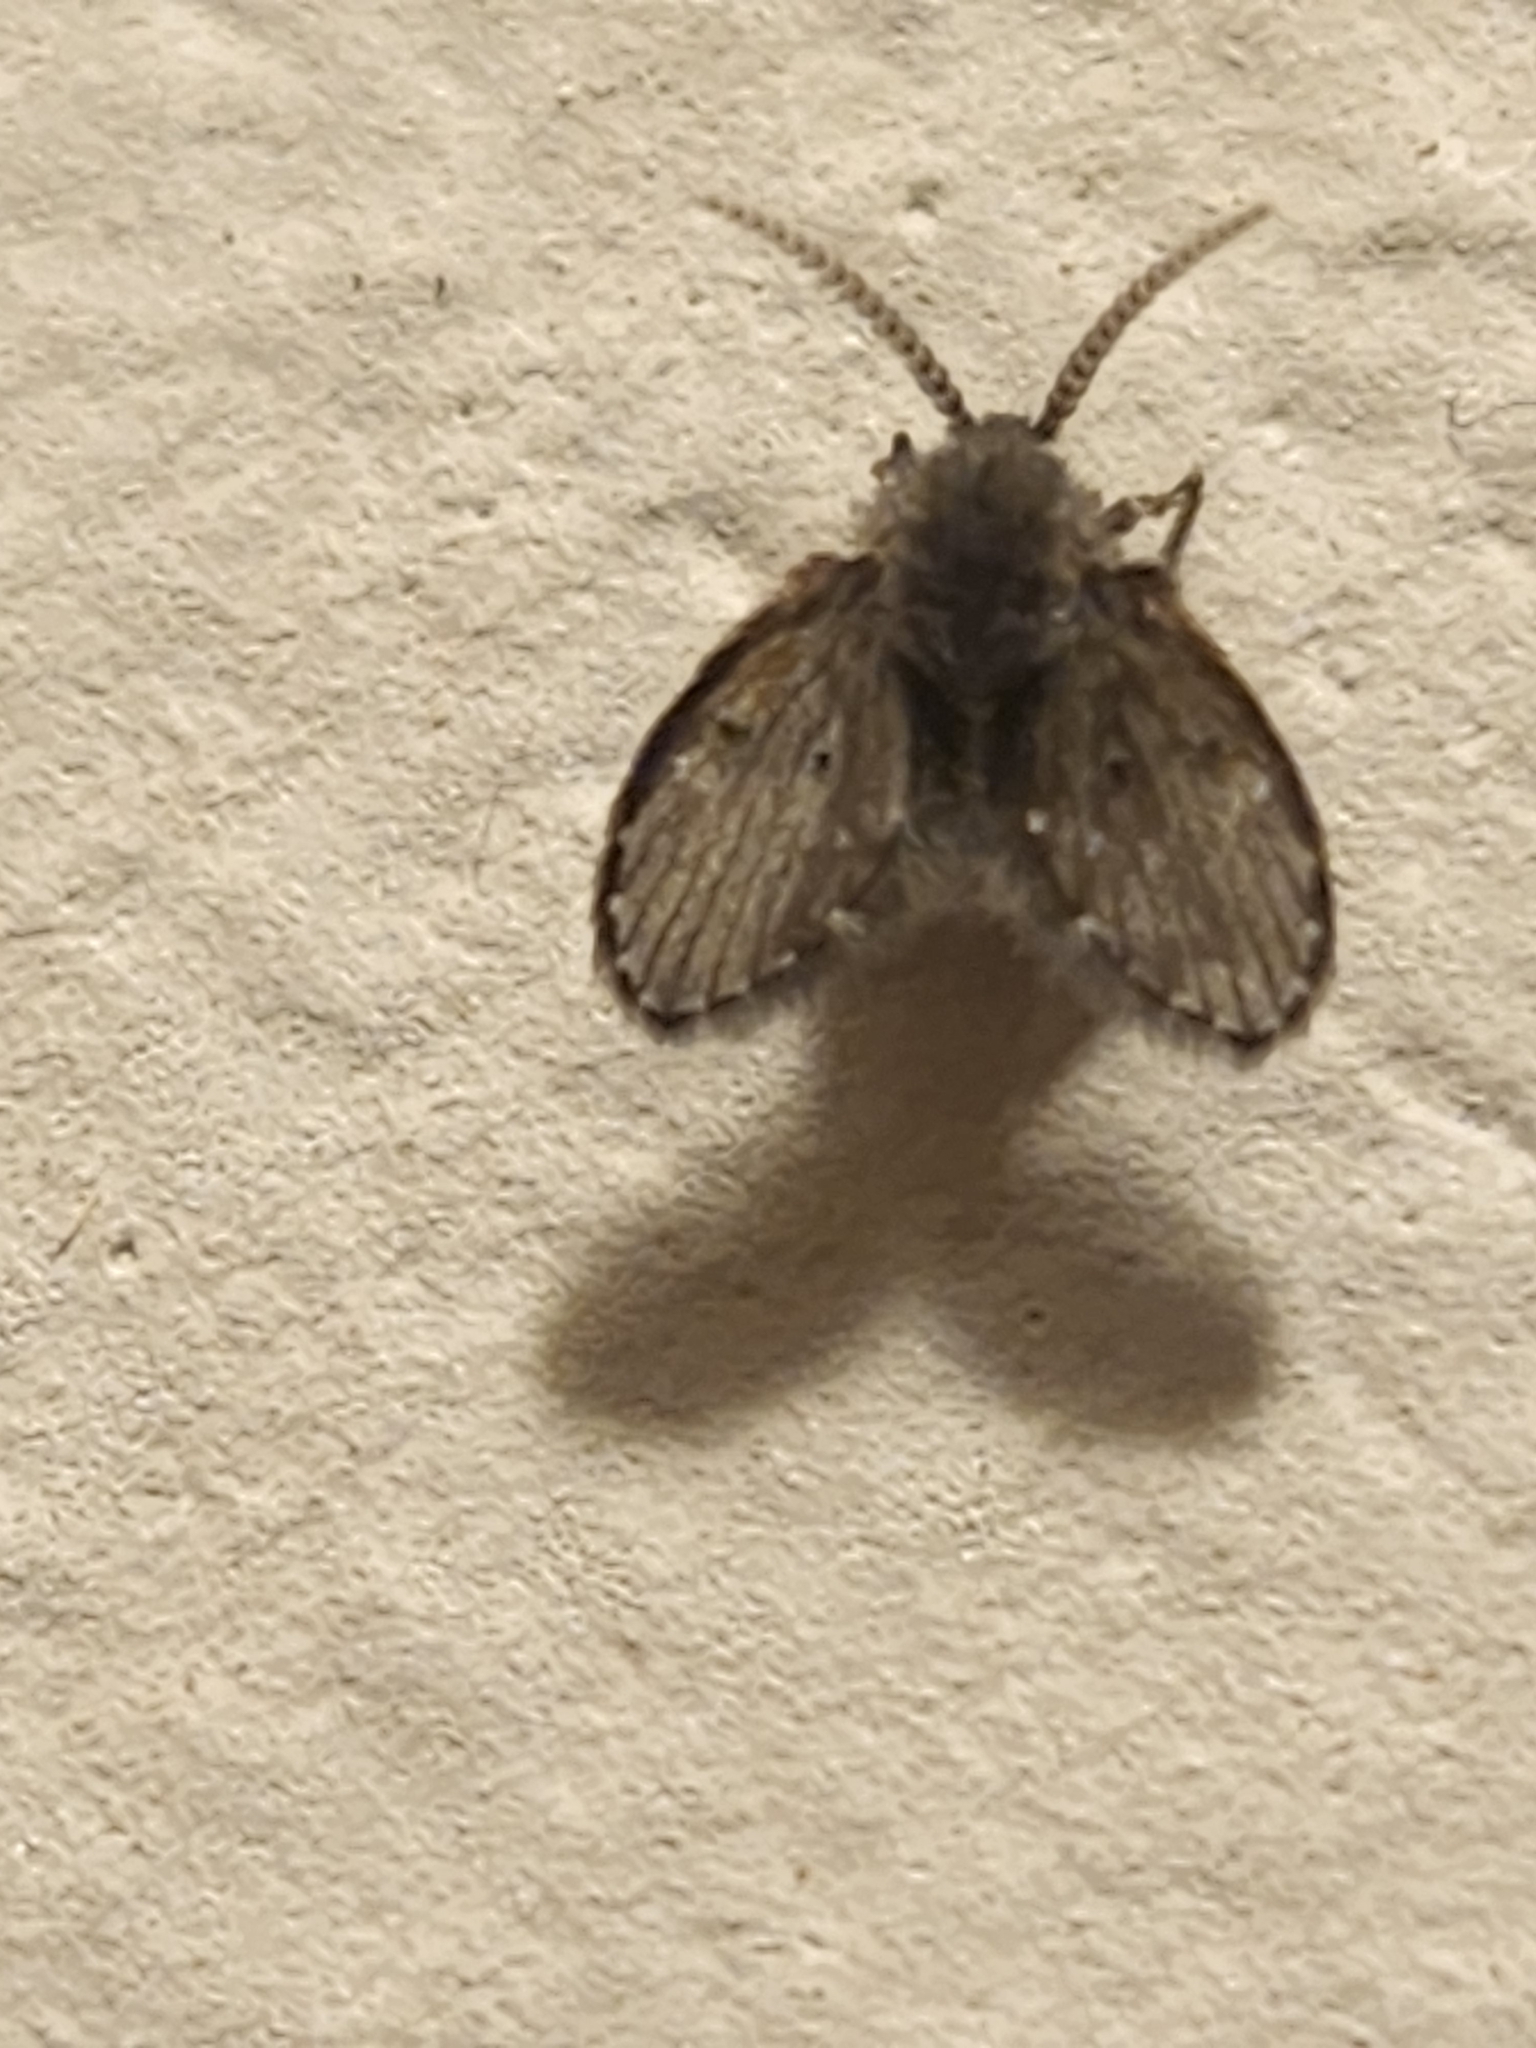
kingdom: Animalia
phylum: Arthropoda
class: Insecta
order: Diptera
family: Psychodidae
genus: Clogmia
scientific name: Clogmia albipunctatus
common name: White-spotted moth fly
